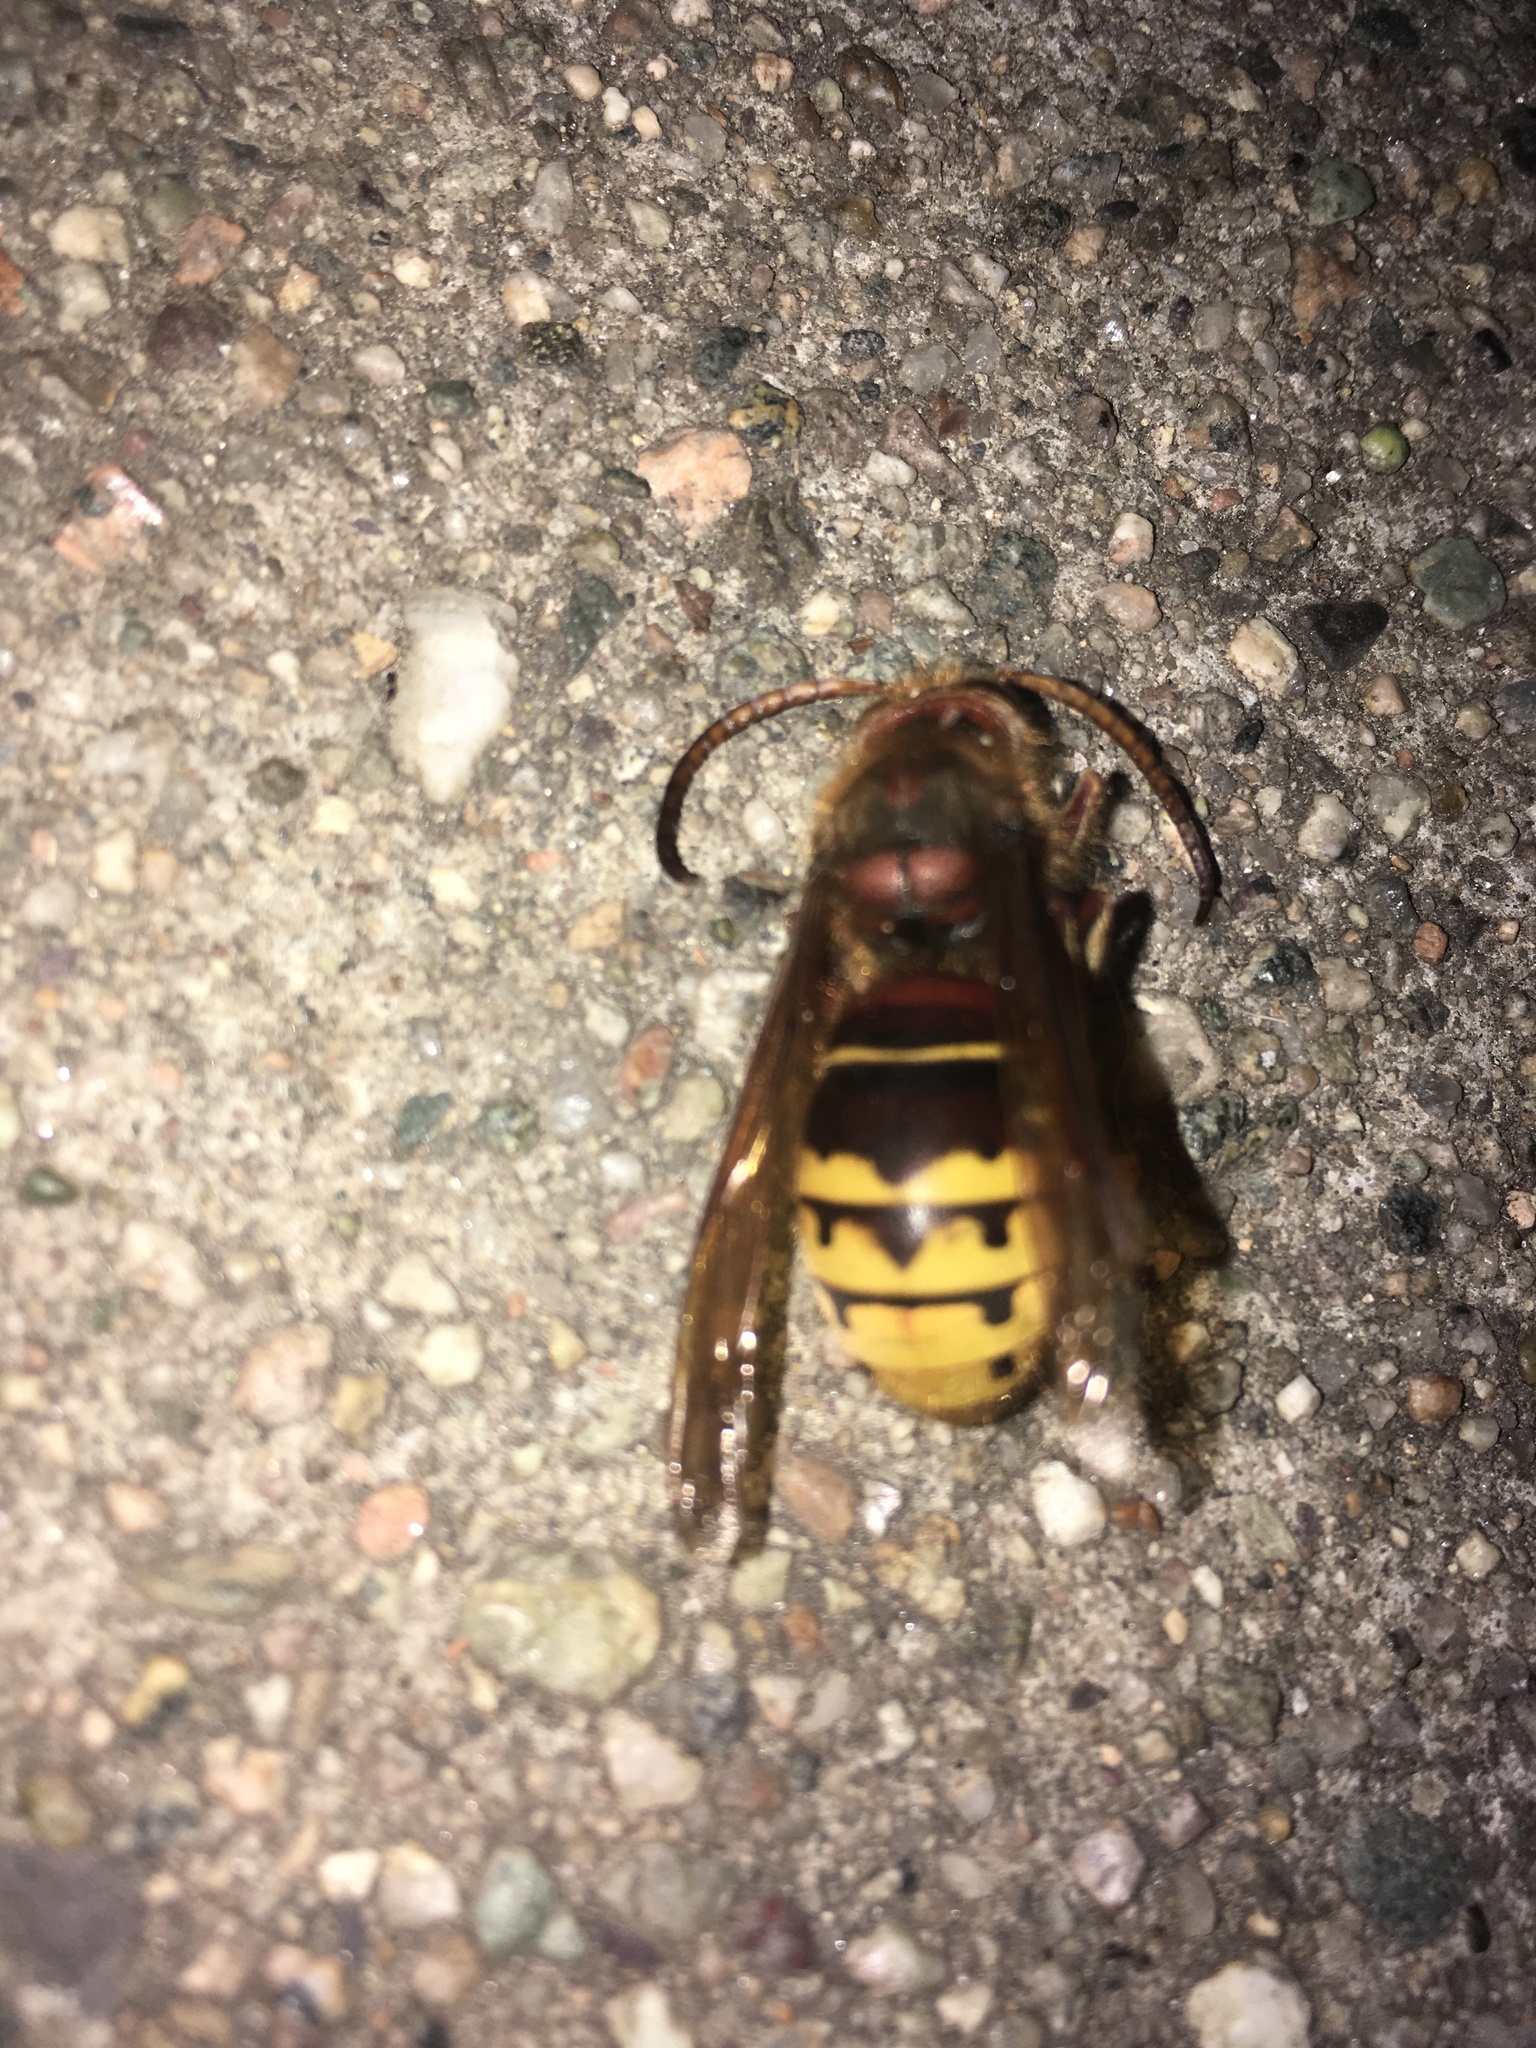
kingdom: Animalia
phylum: Arthropoda
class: Insecta
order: Hymenoptera
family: Vespidae
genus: Vespa
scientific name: Vespa crabro
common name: Hornet
